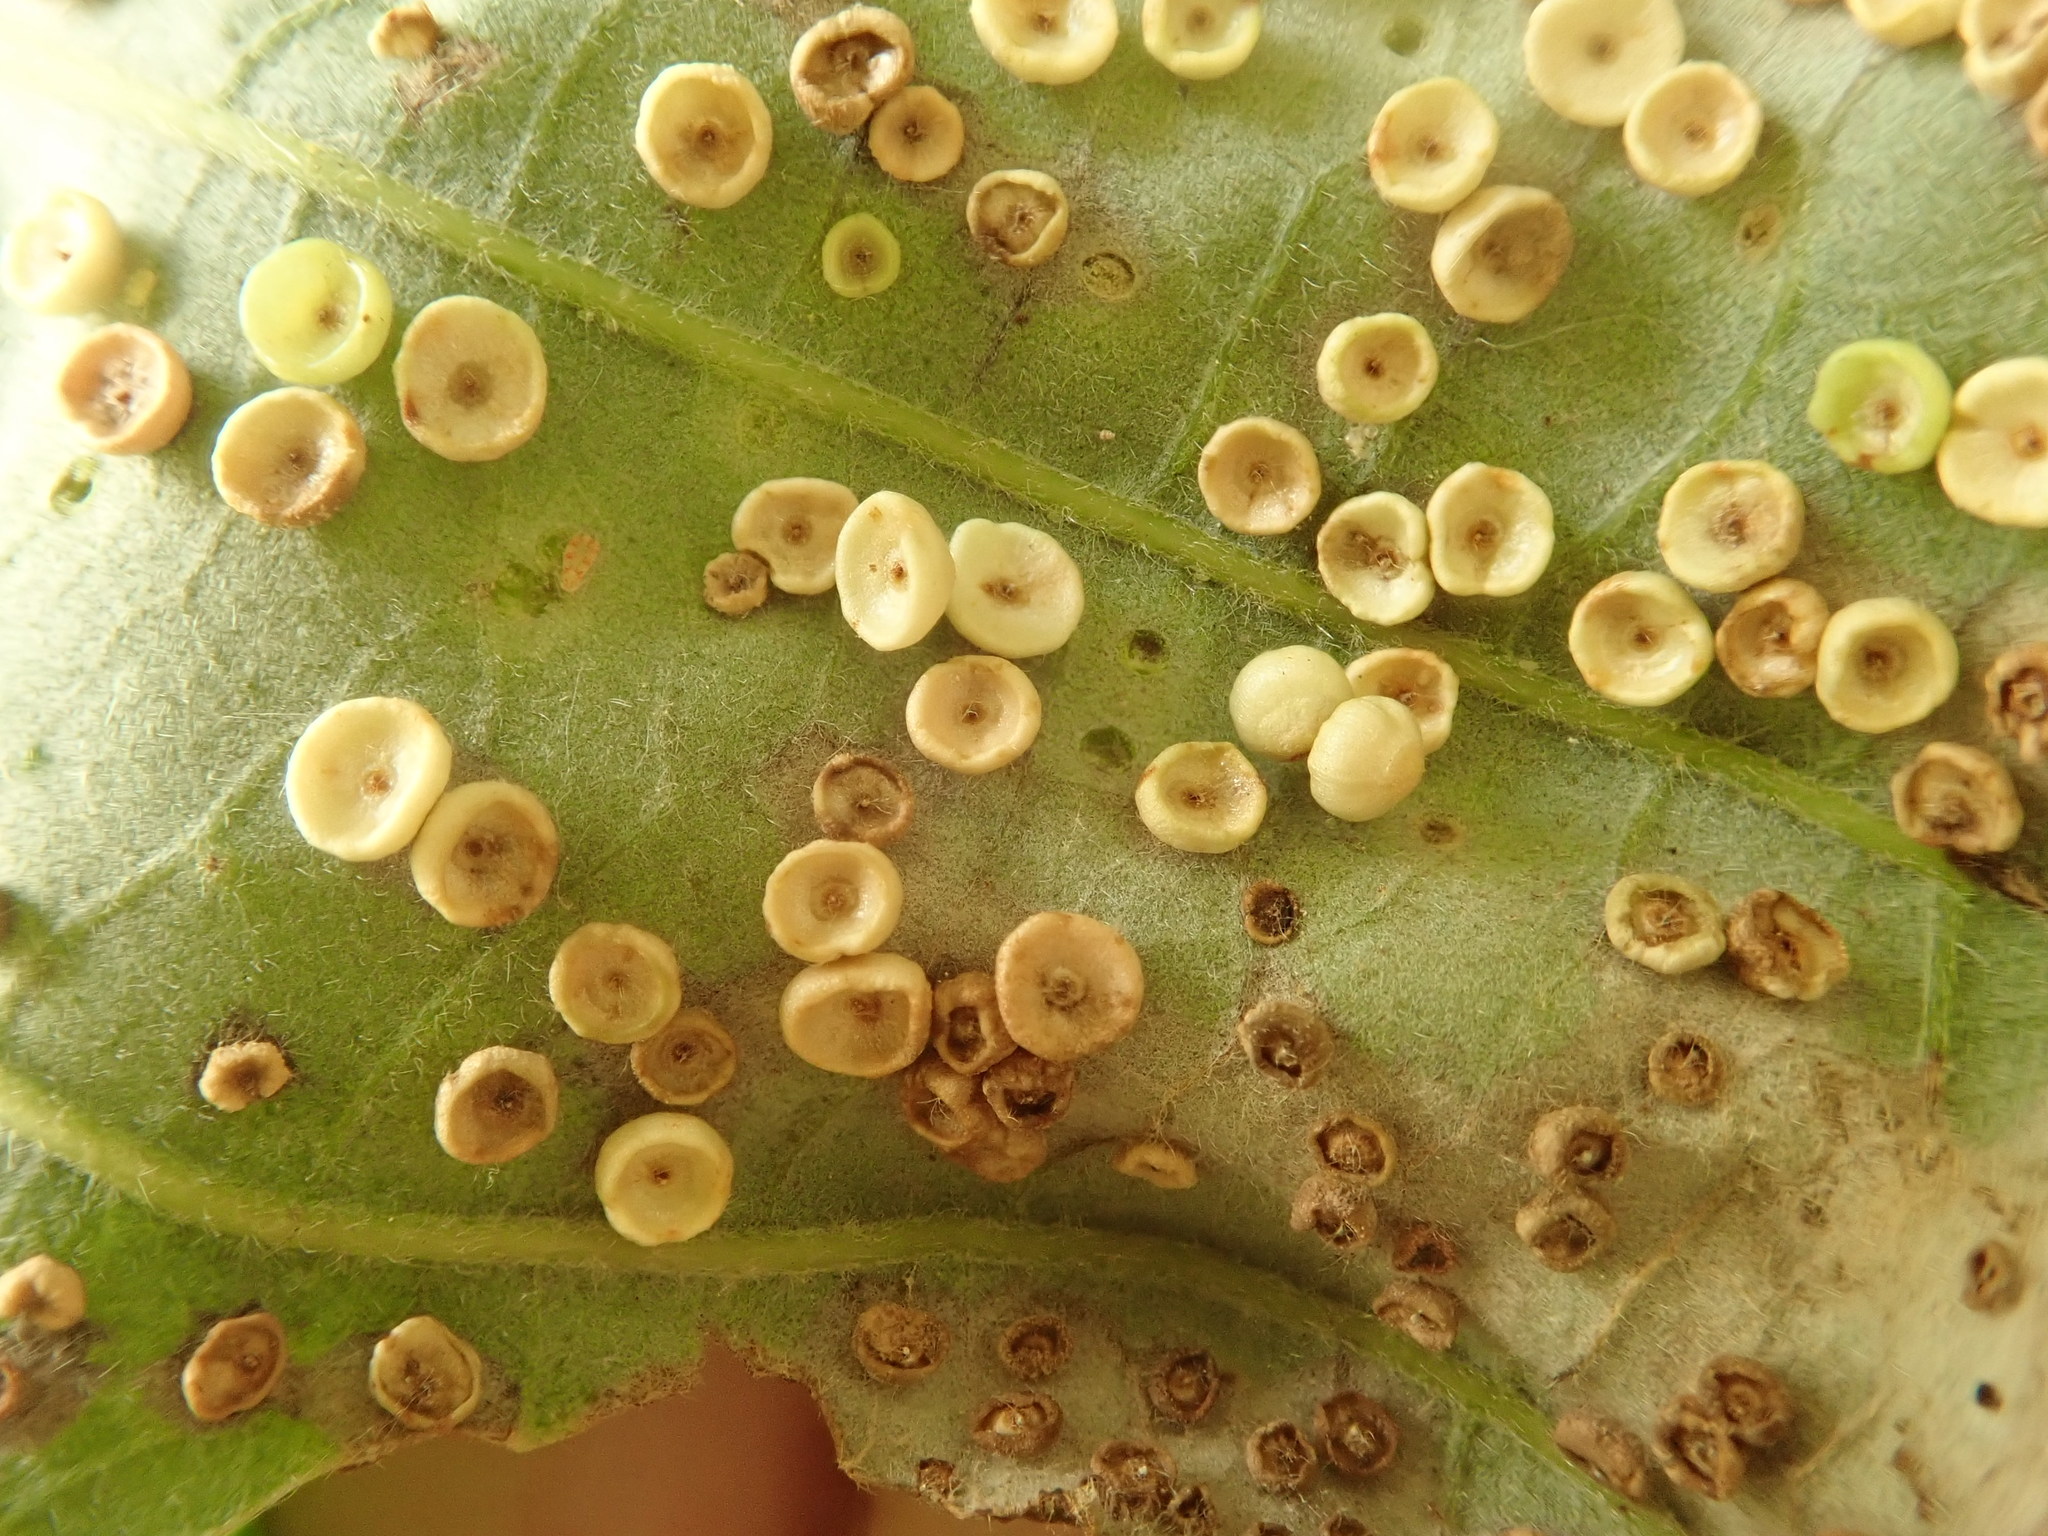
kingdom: Animalia
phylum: Arthropoda
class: Insecta
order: Hymenoptera
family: Cynipidae
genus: Neuroterus
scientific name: Neuroterus saltarius
